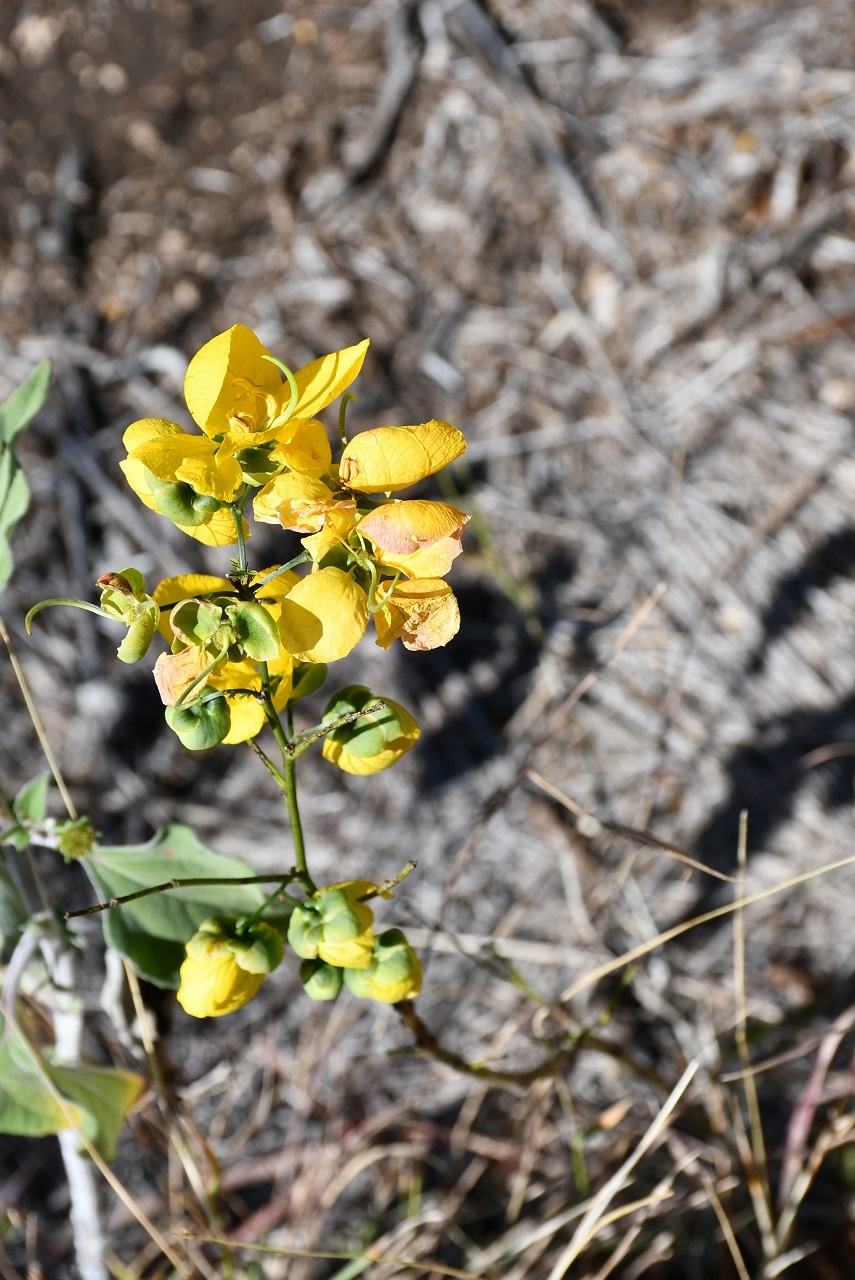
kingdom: Plantae
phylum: Tracheophyta
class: Magnoliopsida
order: Fabales
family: Fabaceae
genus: Senna
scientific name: Senna holwayana
